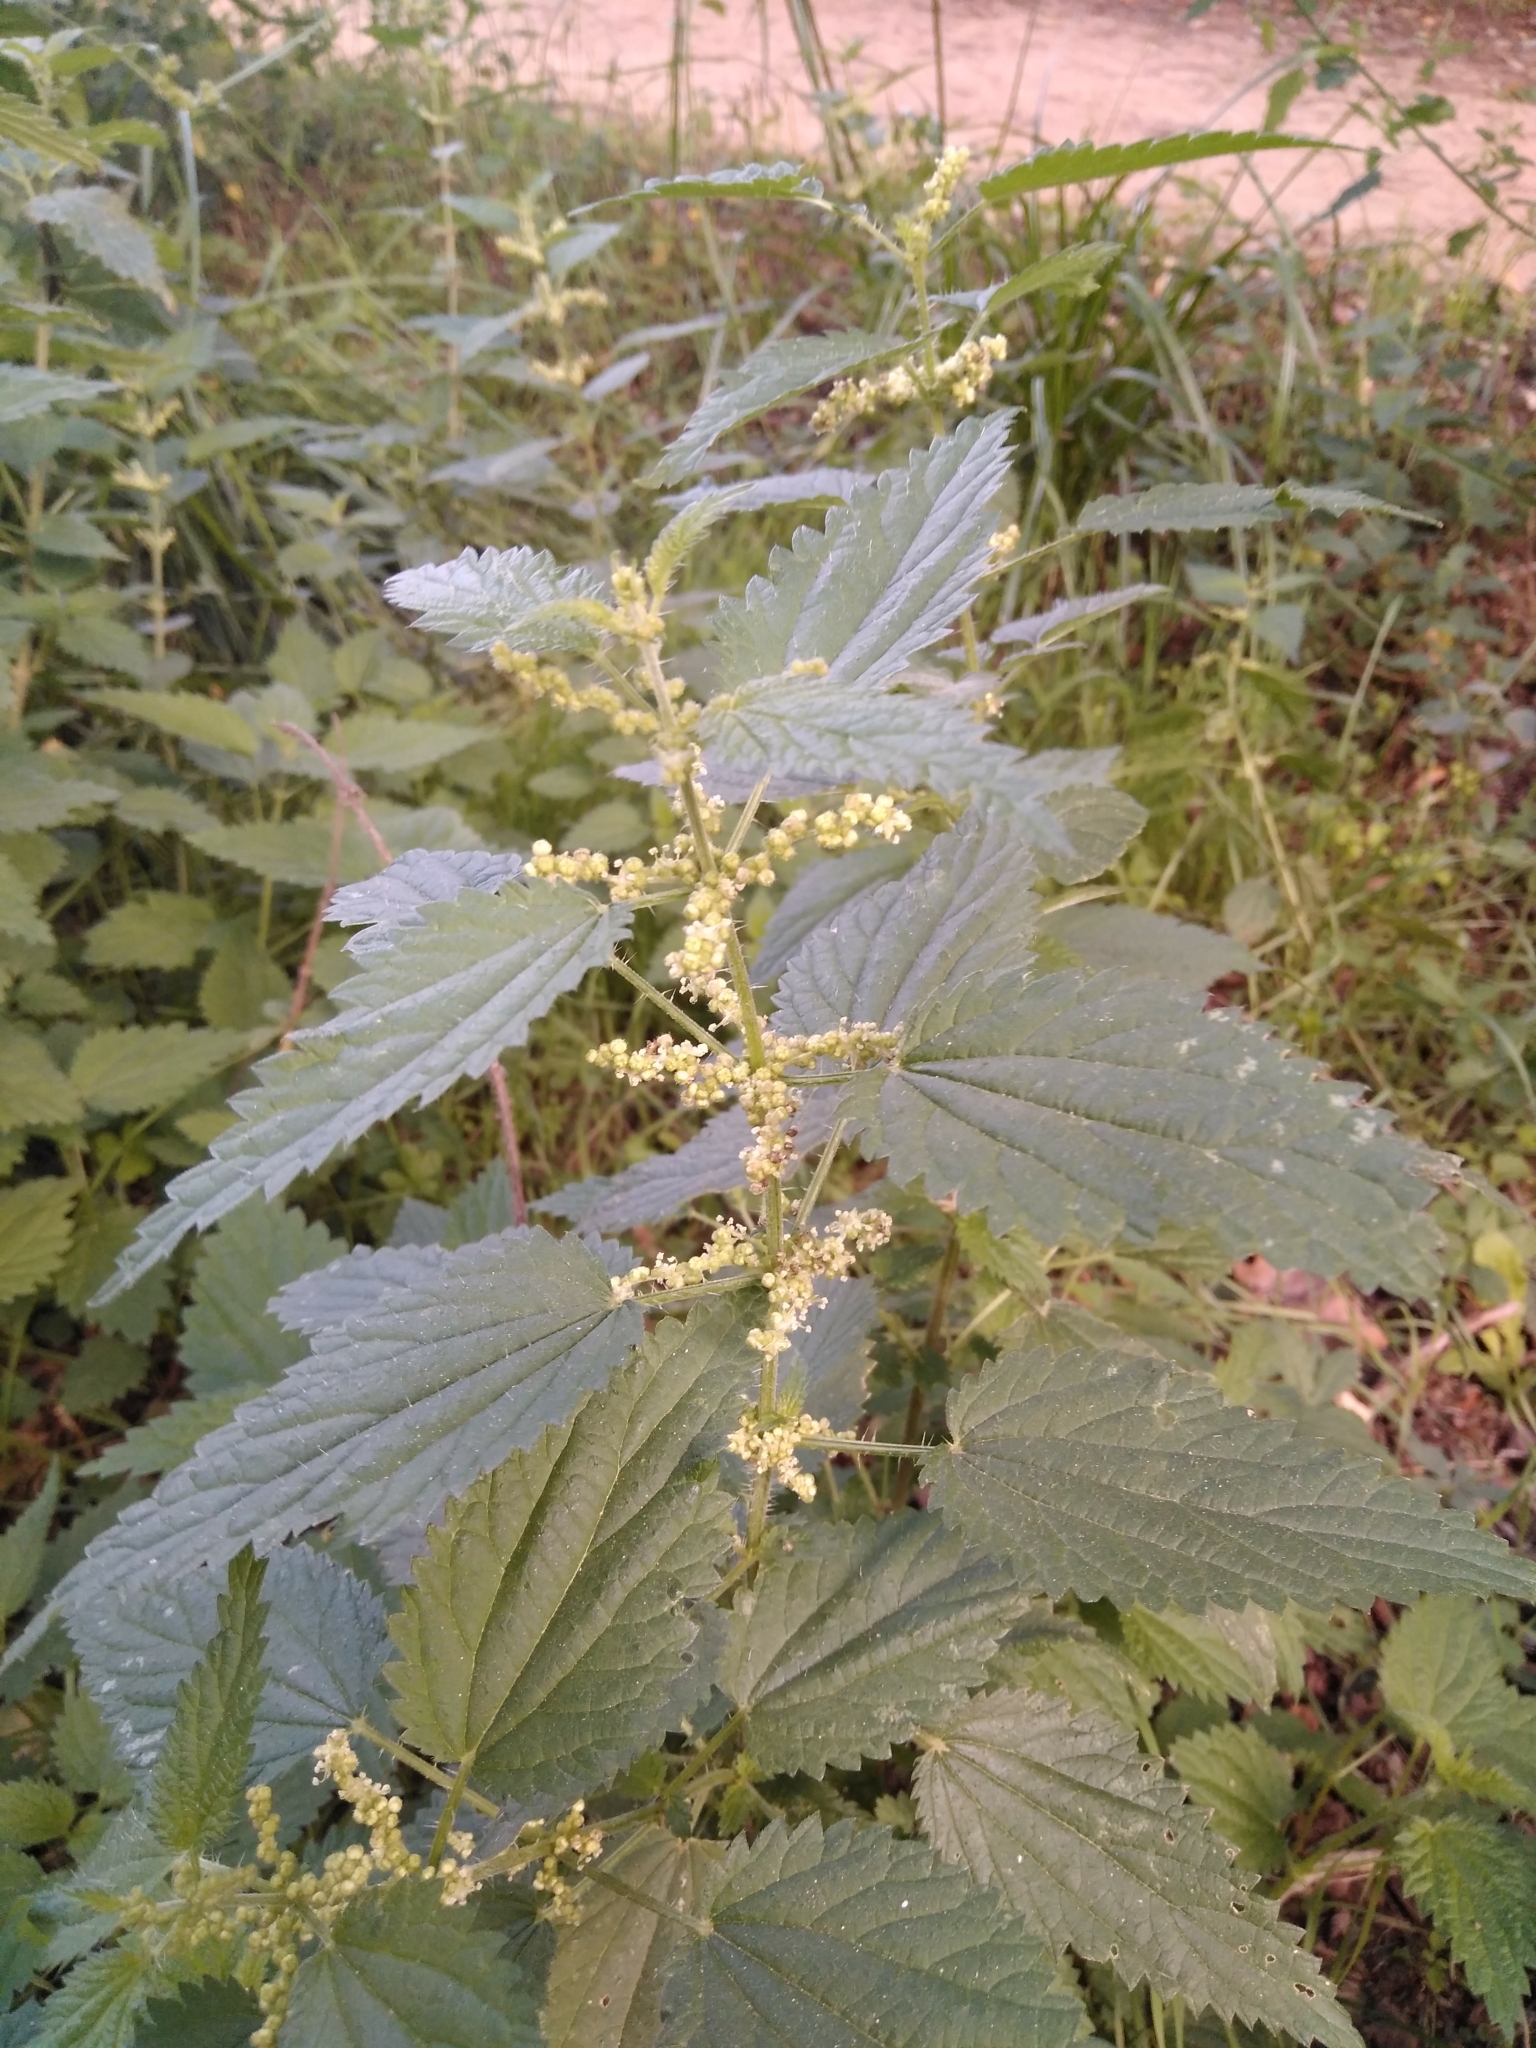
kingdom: Plantae
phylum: Tracheophyta
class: Magnoliopsida
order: Rosales
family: Urticaceae
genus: Urtica
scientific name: Urtica dioica
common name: Common nettle
